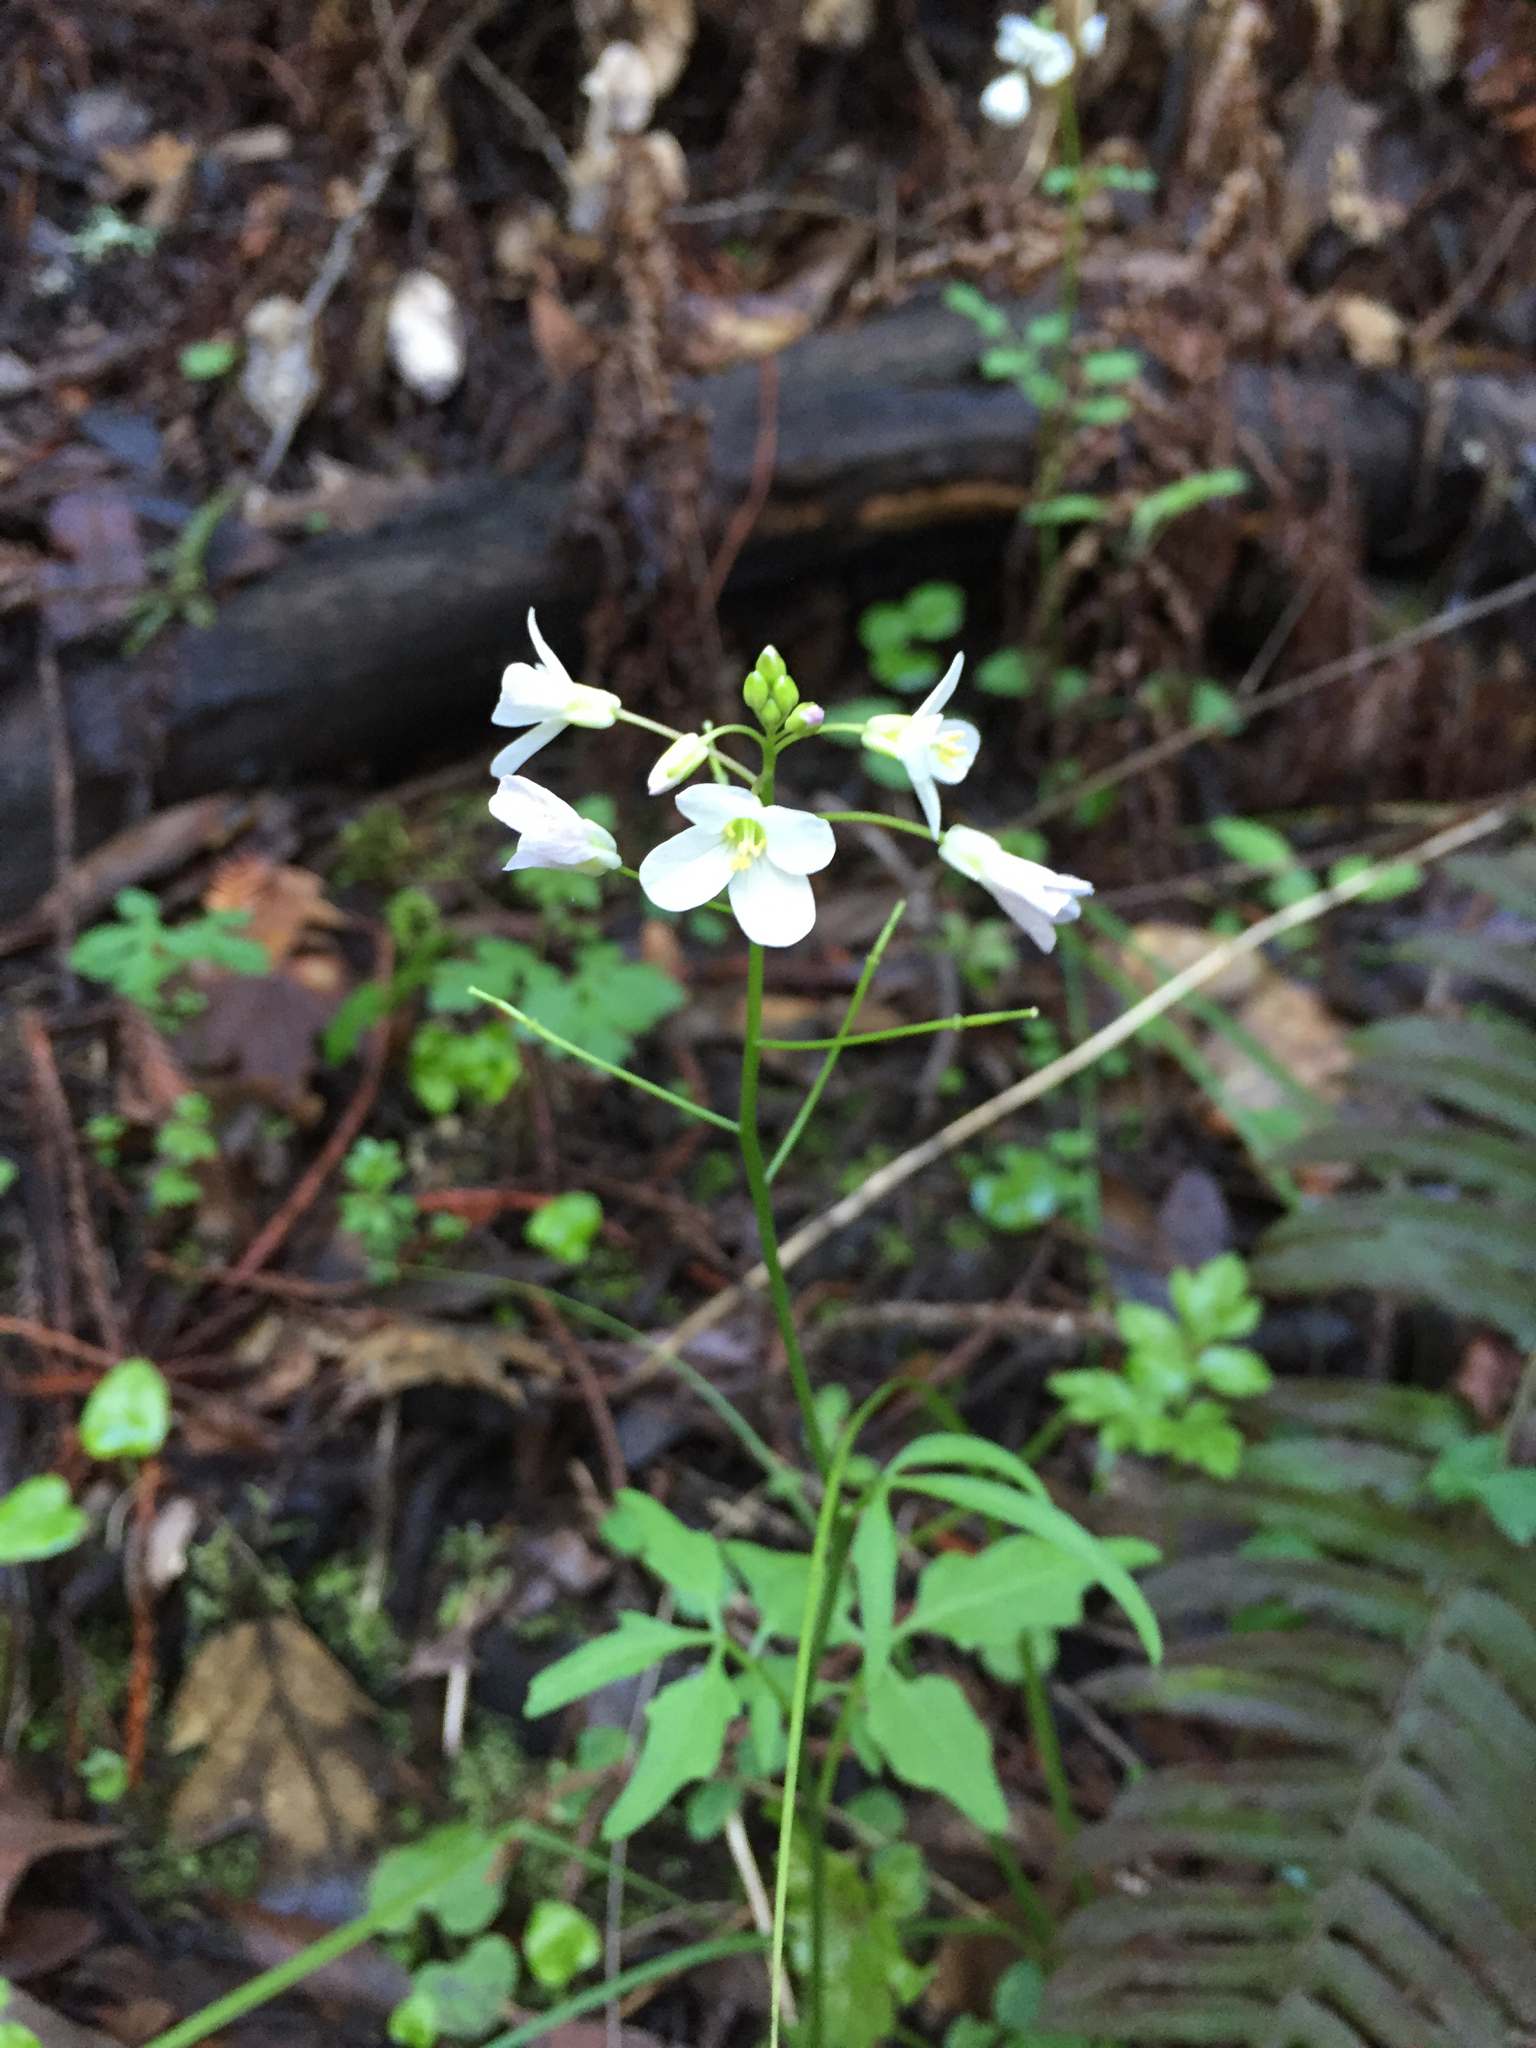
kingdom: Plantae
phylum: Tracheophyta
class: Magnoliopsida
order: Brassicales
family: Brassicaceae
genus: Cardamine
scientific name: Cardamine californica
